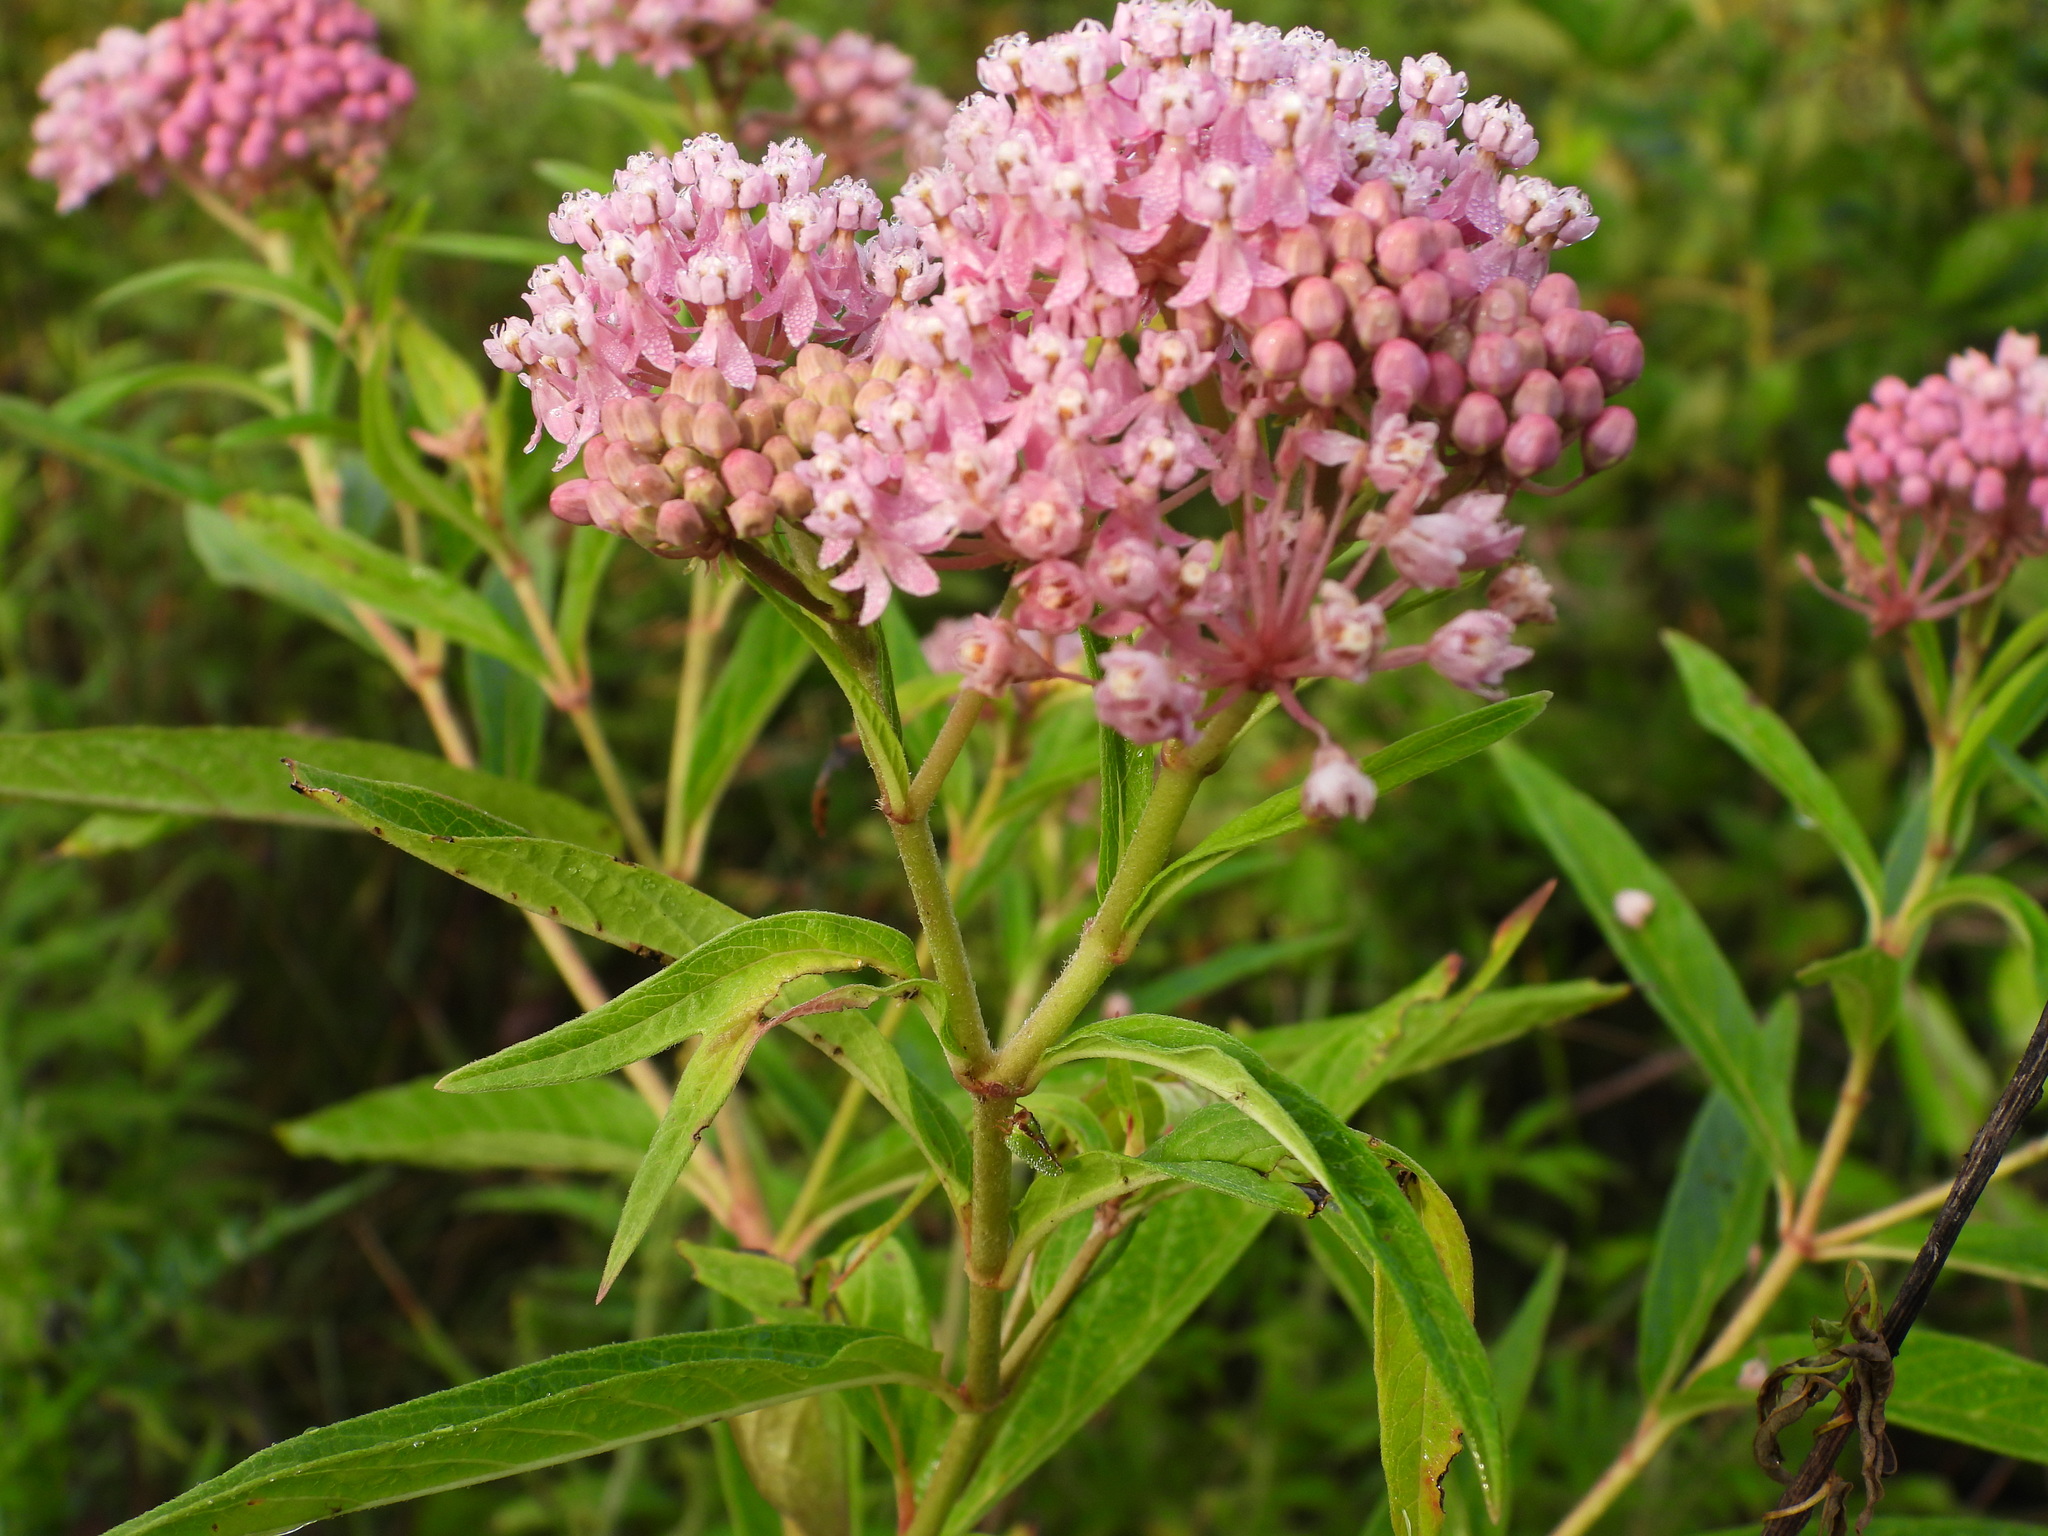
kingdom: Plantae
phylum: Tracheophyta
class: Magnoliopsida
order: Gentianales
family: Apocynaceae
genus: Asclepias
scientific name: Asclepias incarnata
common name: Swamp milkweed
